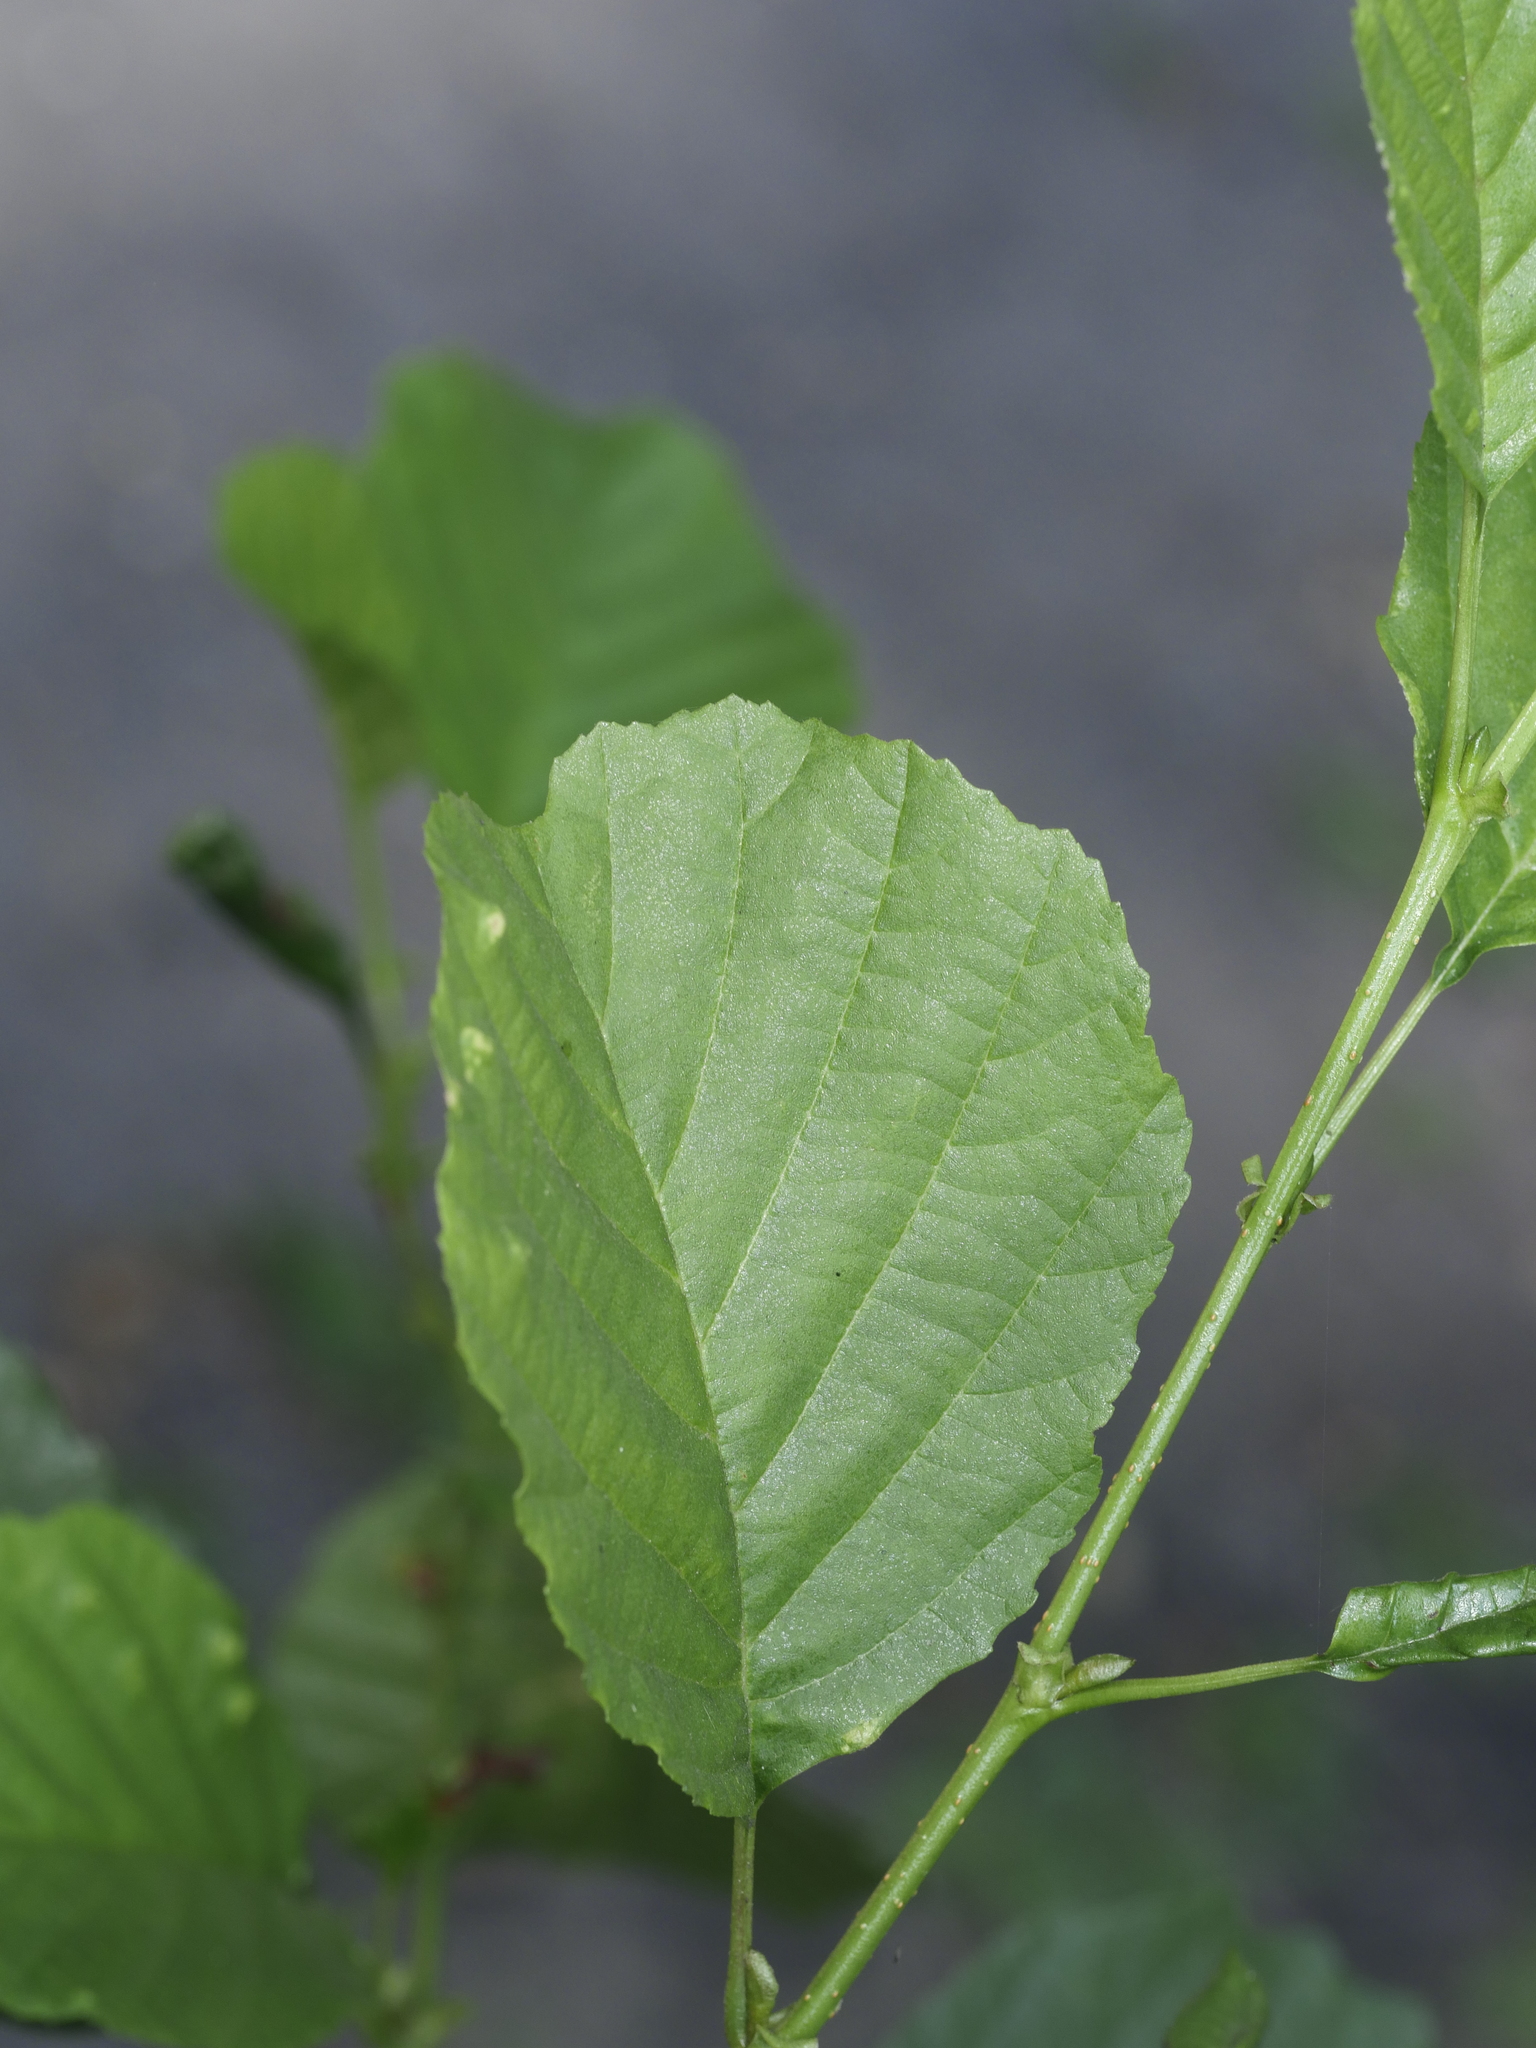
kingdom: Plantae
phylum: Tracheophyta
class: Magnoliopsida
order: Fagales
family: Betulaceae
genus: Alnus
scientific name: Alnus glutinosa
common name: Black alder
